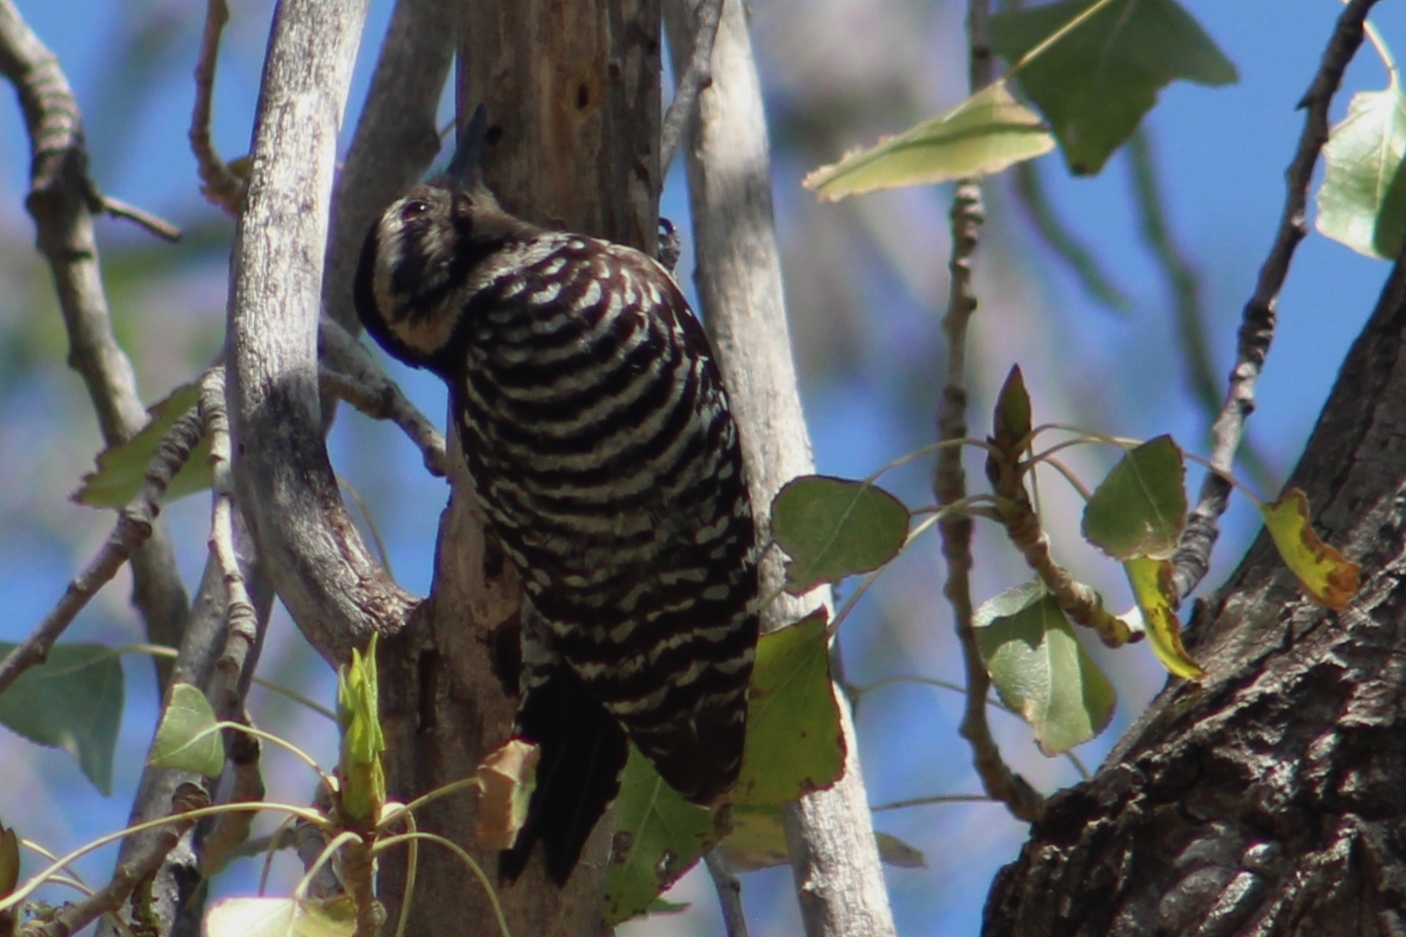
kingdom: Animalia
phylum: Chordata
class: Aves
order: Piciformes
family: Picidae
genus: Dryobates
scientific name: Dryobates scalaris
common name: Ladder-backed woodpecker
